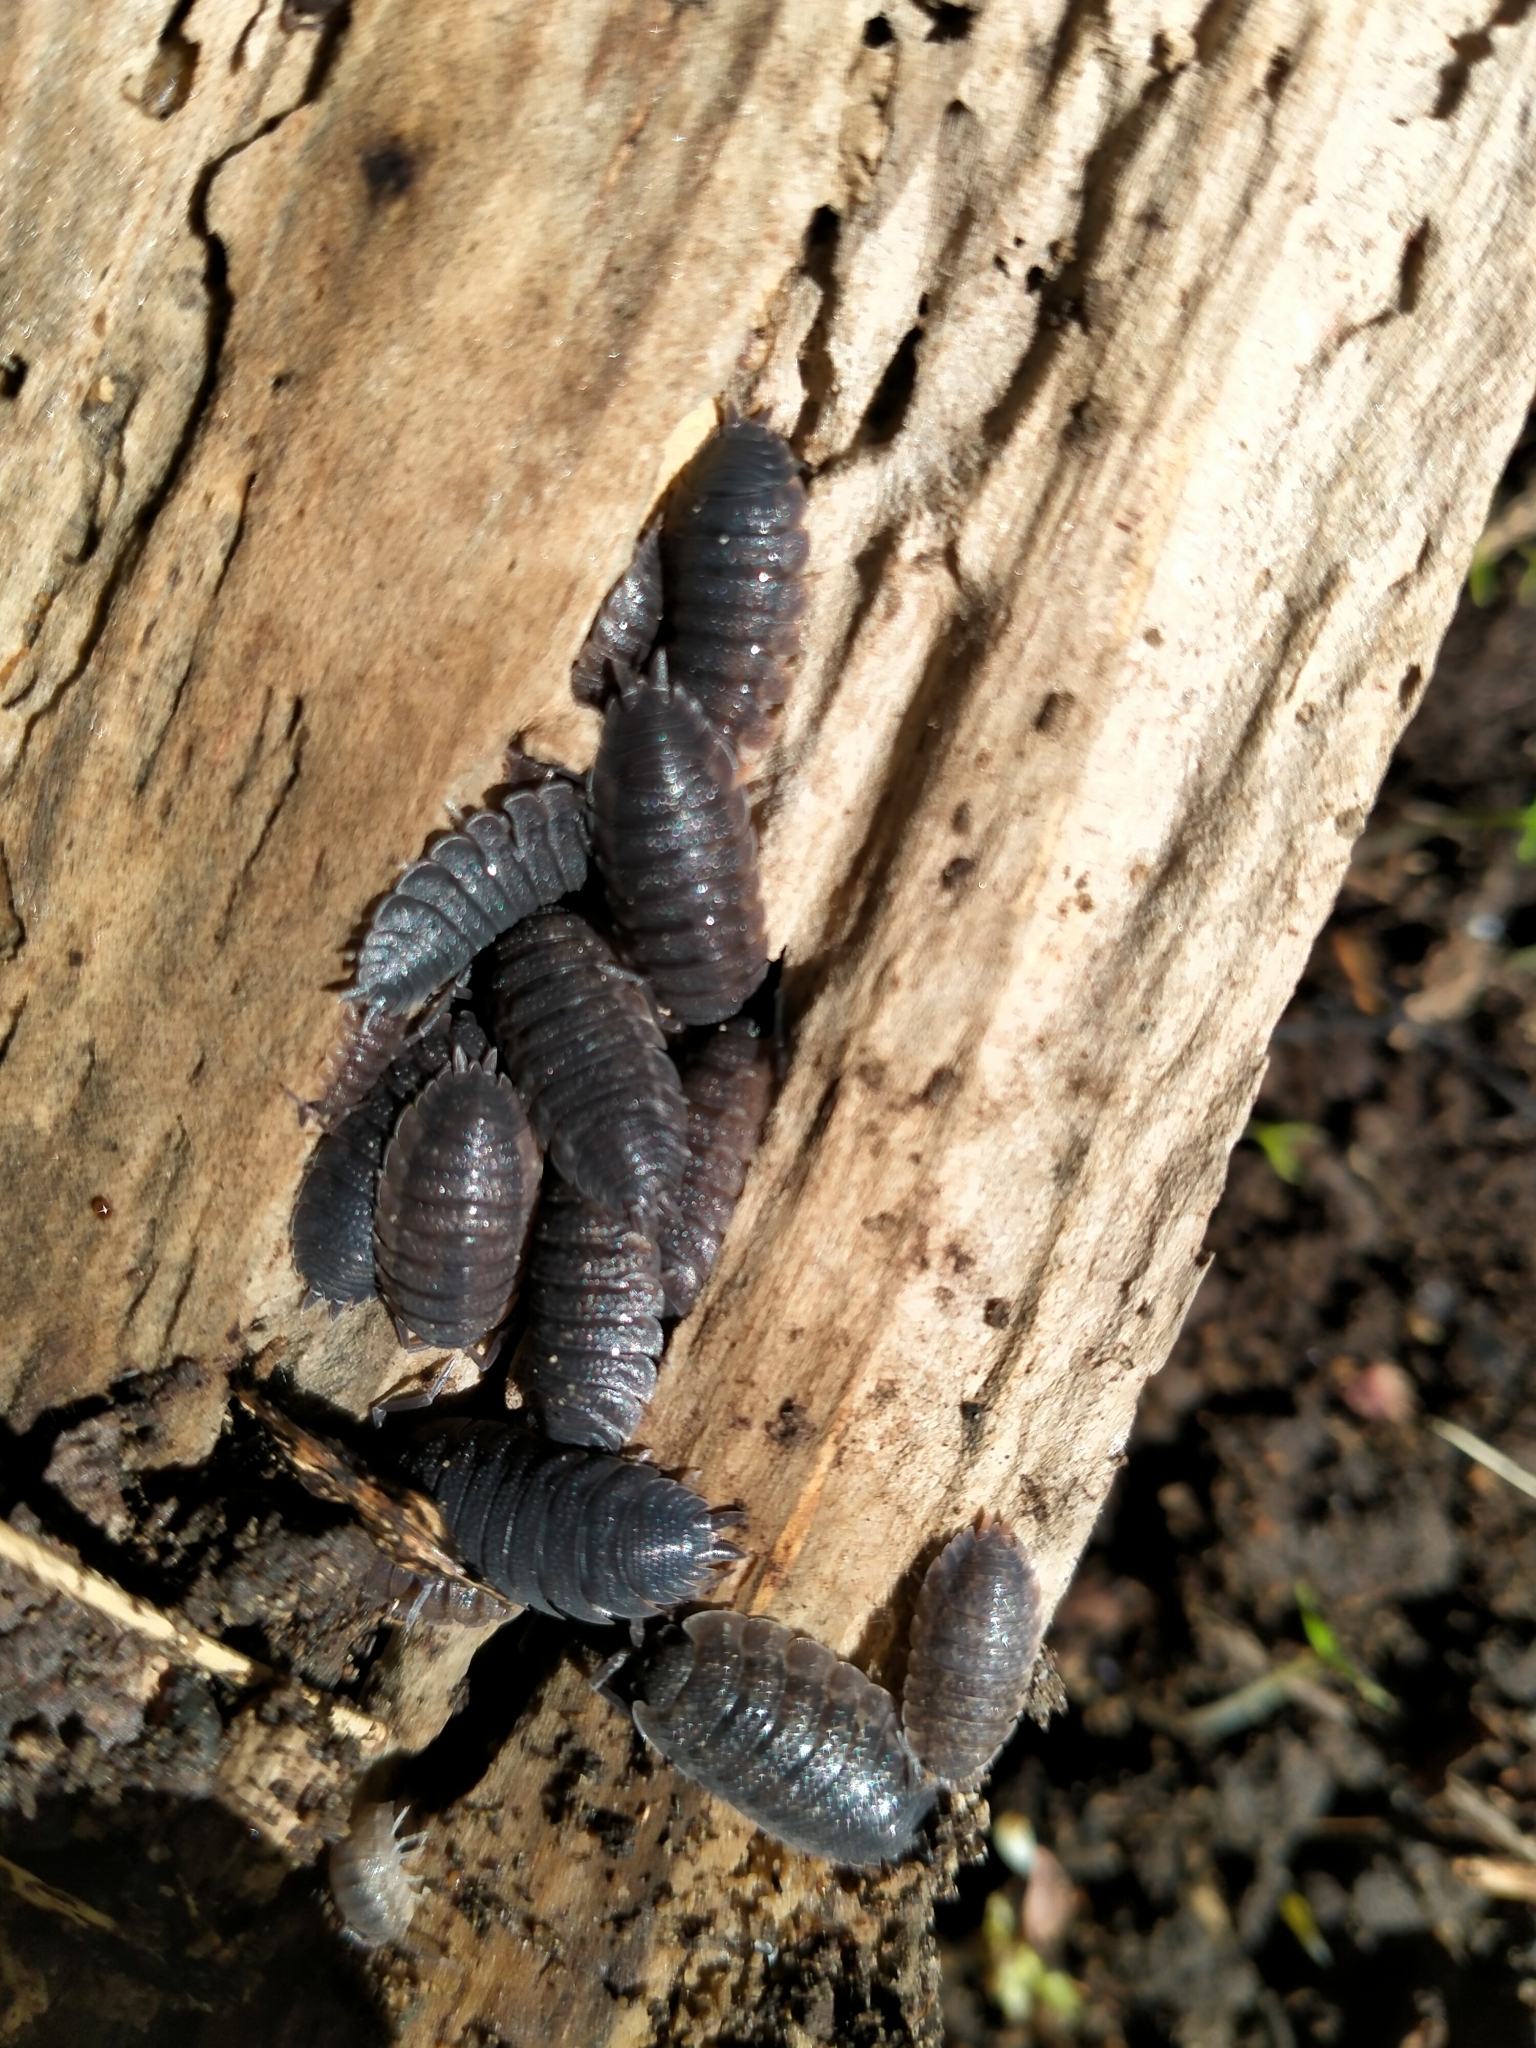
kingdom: Animalia
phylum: Arthropoda
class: Malacostraca
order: Isopoda
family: Porcellionidae
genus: Porcellio
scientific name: Porcellio scaber
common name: Common rough woodlouse
